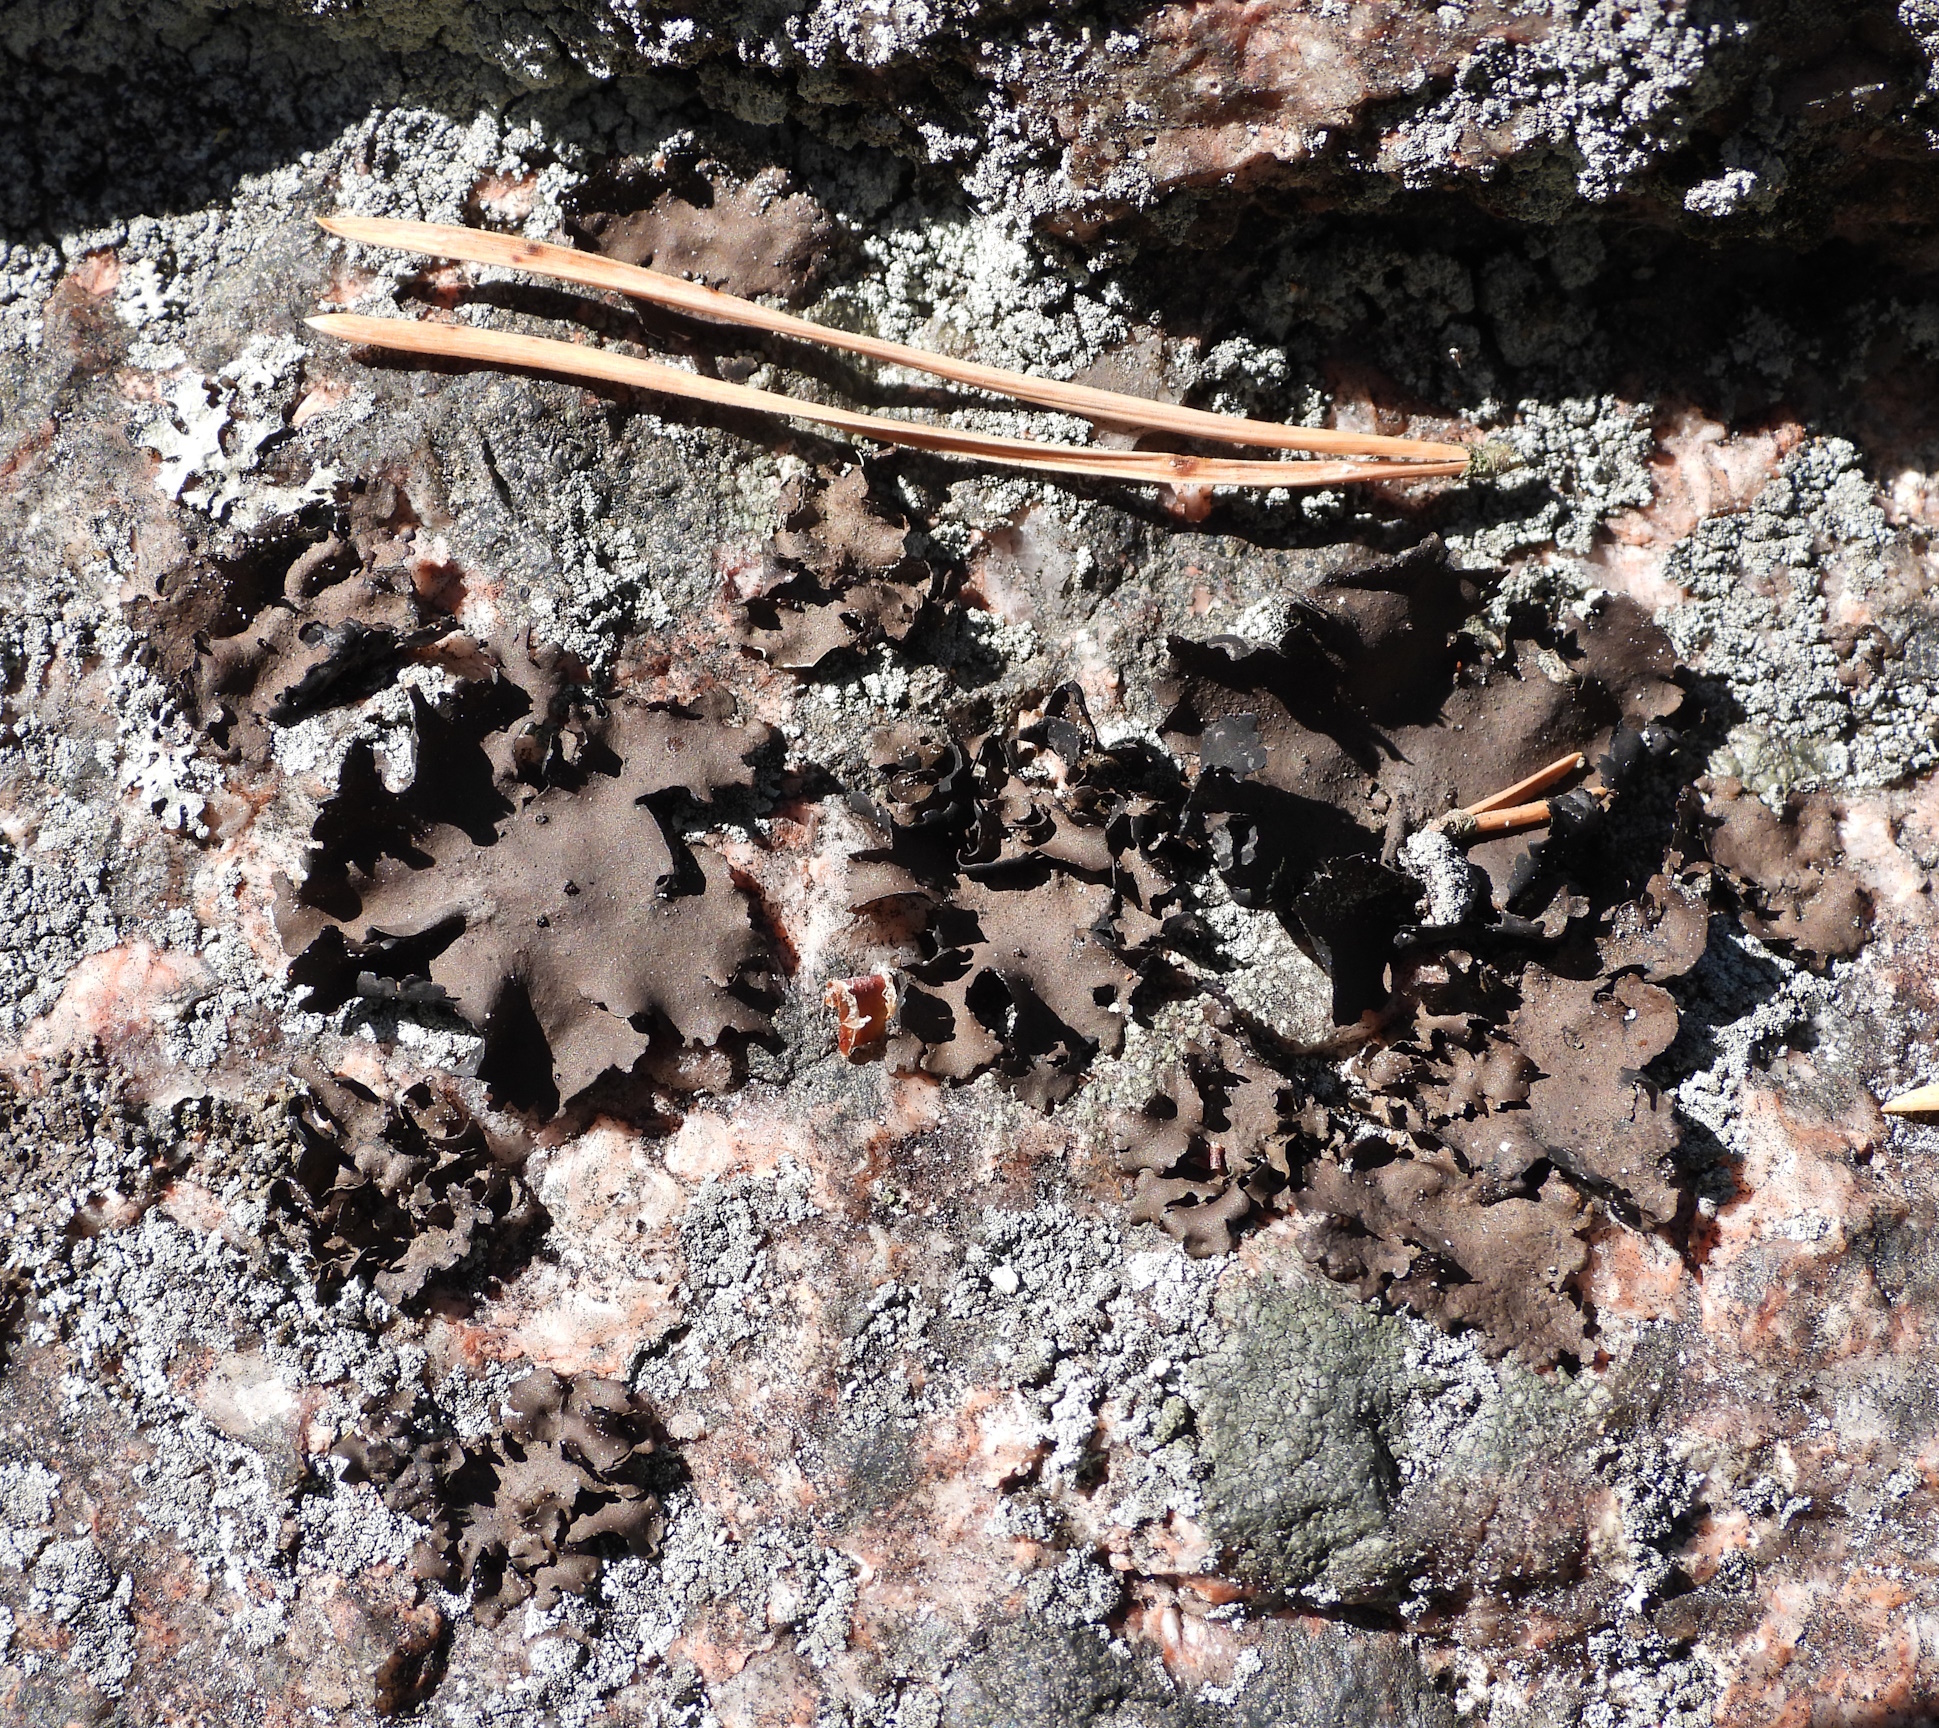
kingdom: Fungi
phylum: Ascomycota
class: Lecanoromycetes
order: Umbilicariales
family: Umbilicariaceae
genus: Umbilicaria
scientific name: Umbilicaria polyphylla
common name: Petalled rocktripe lichen
